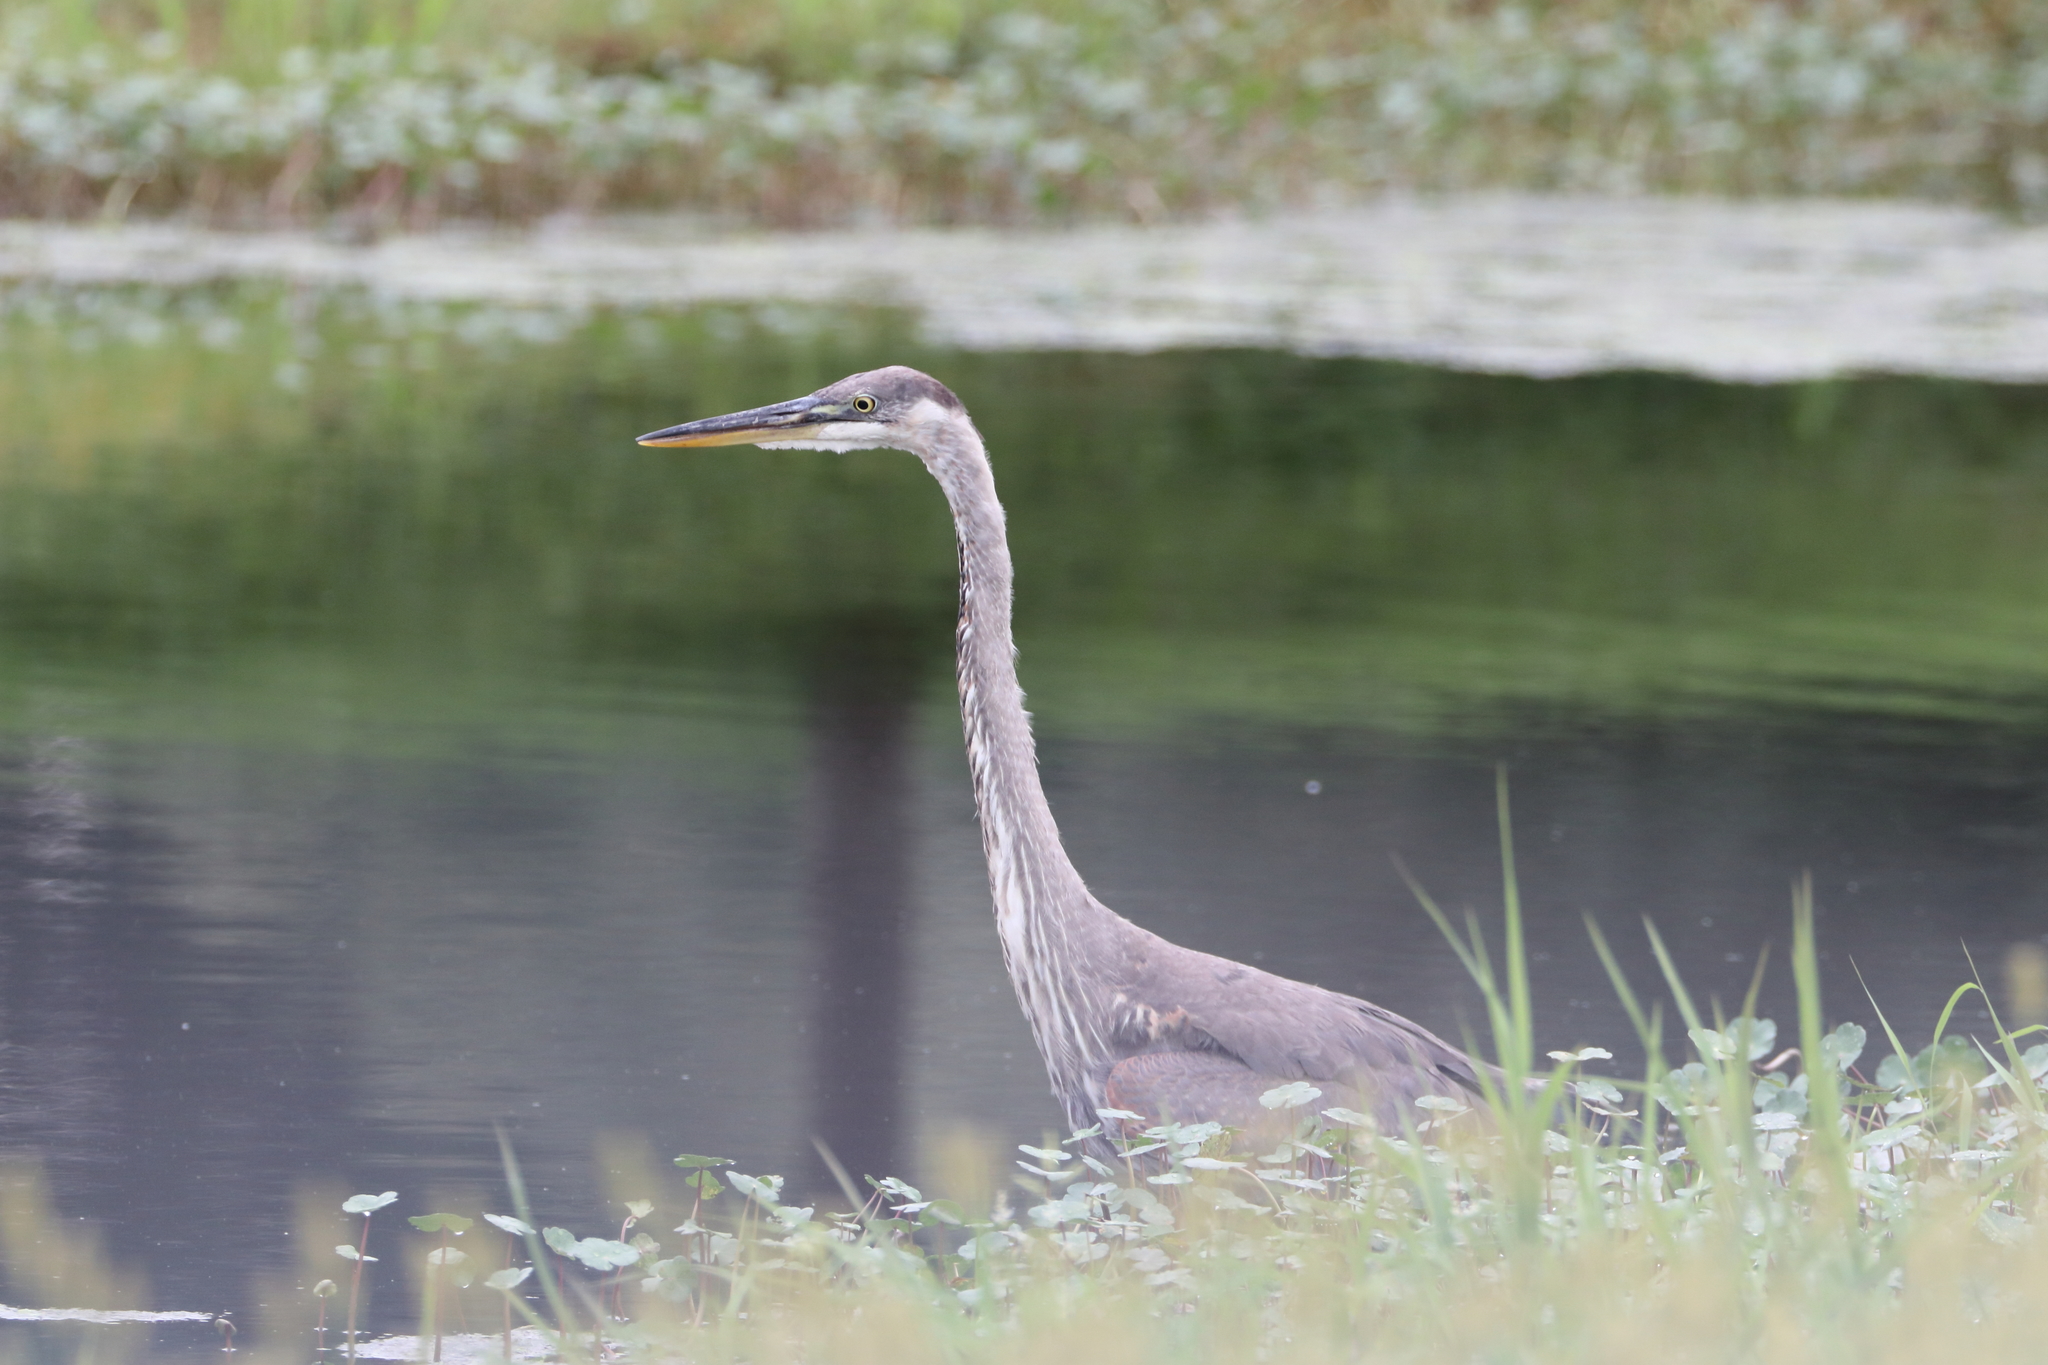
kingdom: Animalia
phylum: Chordata
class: Aves
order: Pelecaniformes
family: Ardeidae
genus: Ardea
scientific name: Ardea herodias
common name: Great blue heron
